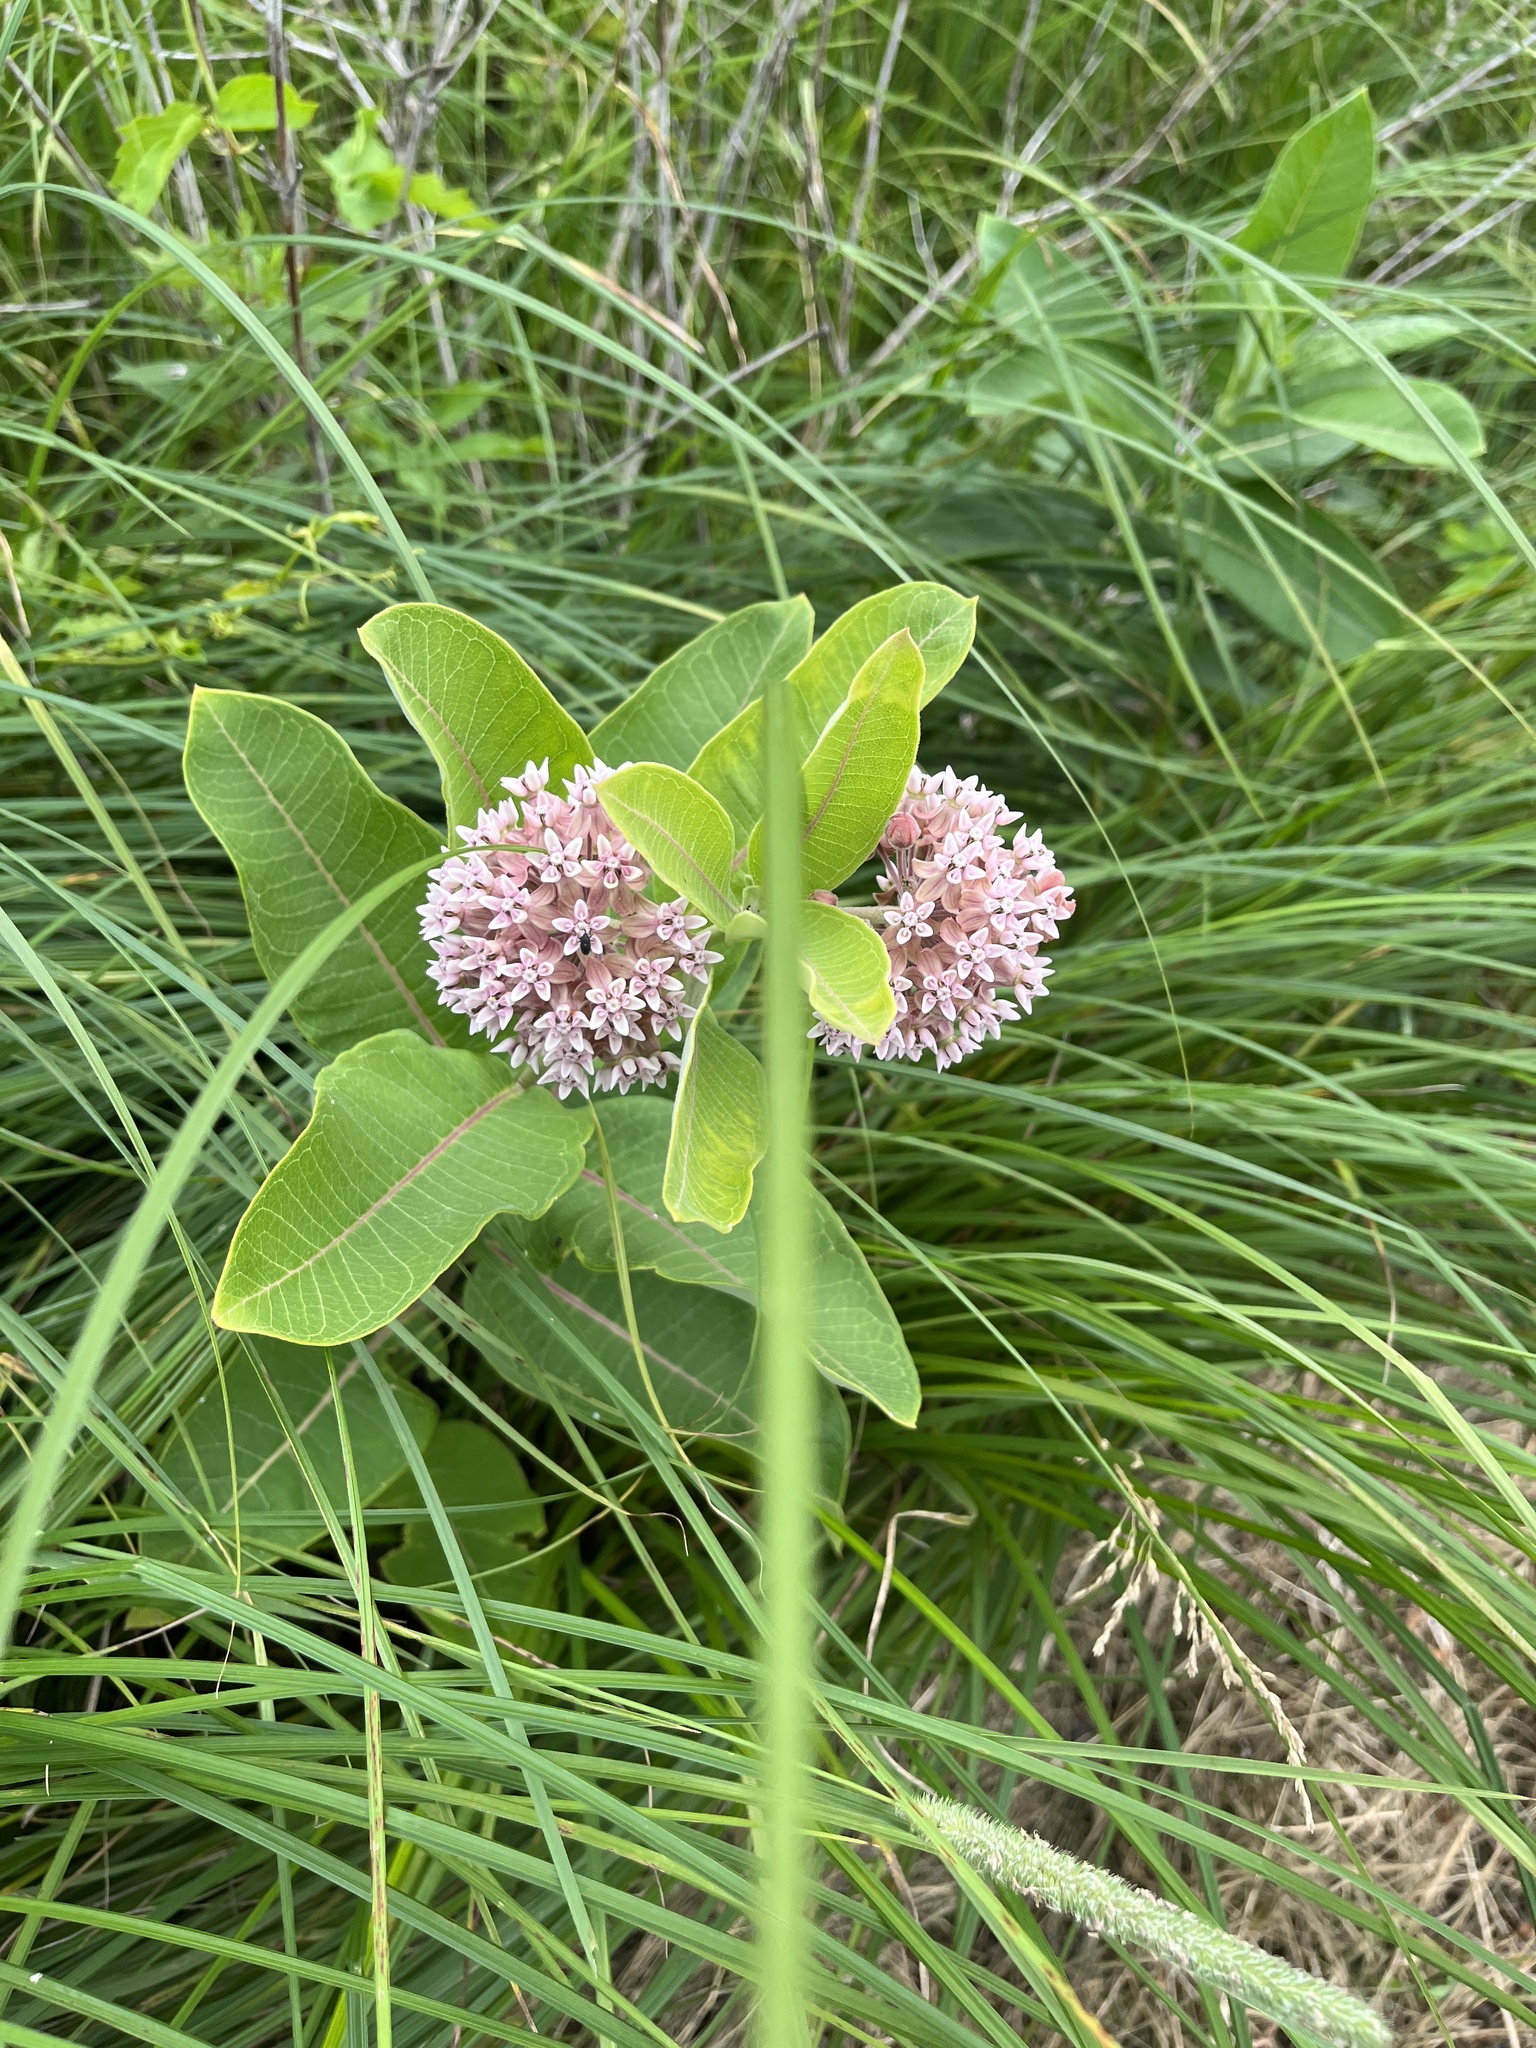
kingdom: Plantae
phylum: Tracheophyta
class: Magnoliopsida
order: Gentianales
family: Apocynaceae
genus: Asclepias
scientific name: Asclepias syriaca
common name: Common milkweed
